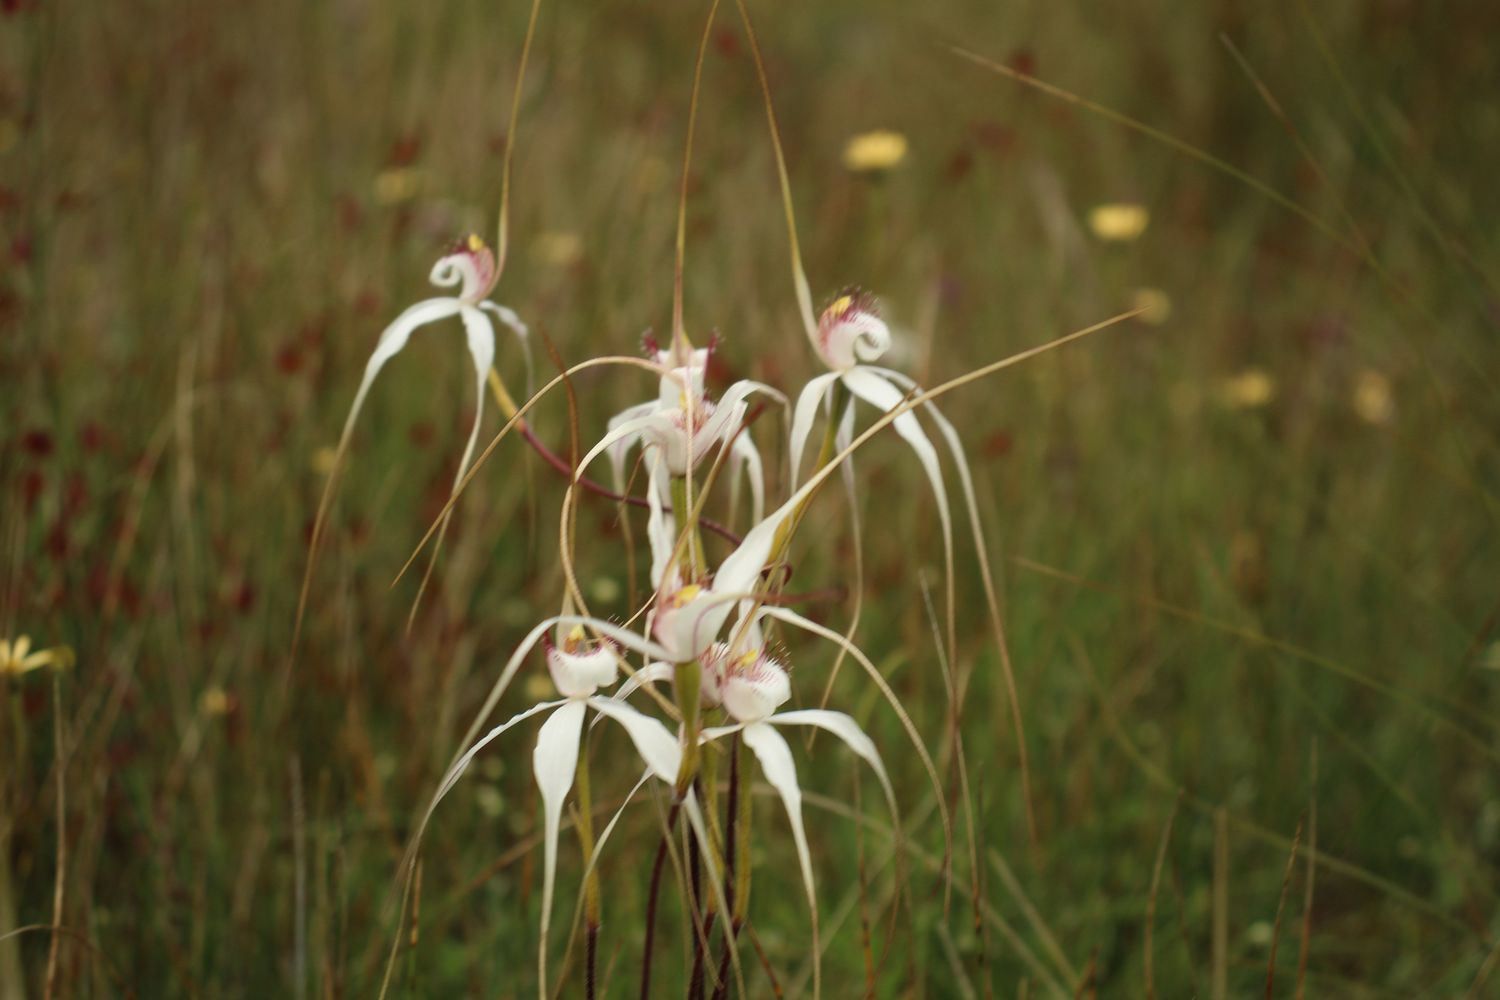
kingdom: Plantae
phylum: Tracheophyta
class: Liliopsida
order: Asparagales
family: Orchidaceae
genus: Caladenia
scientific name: Caladenia longicauda
